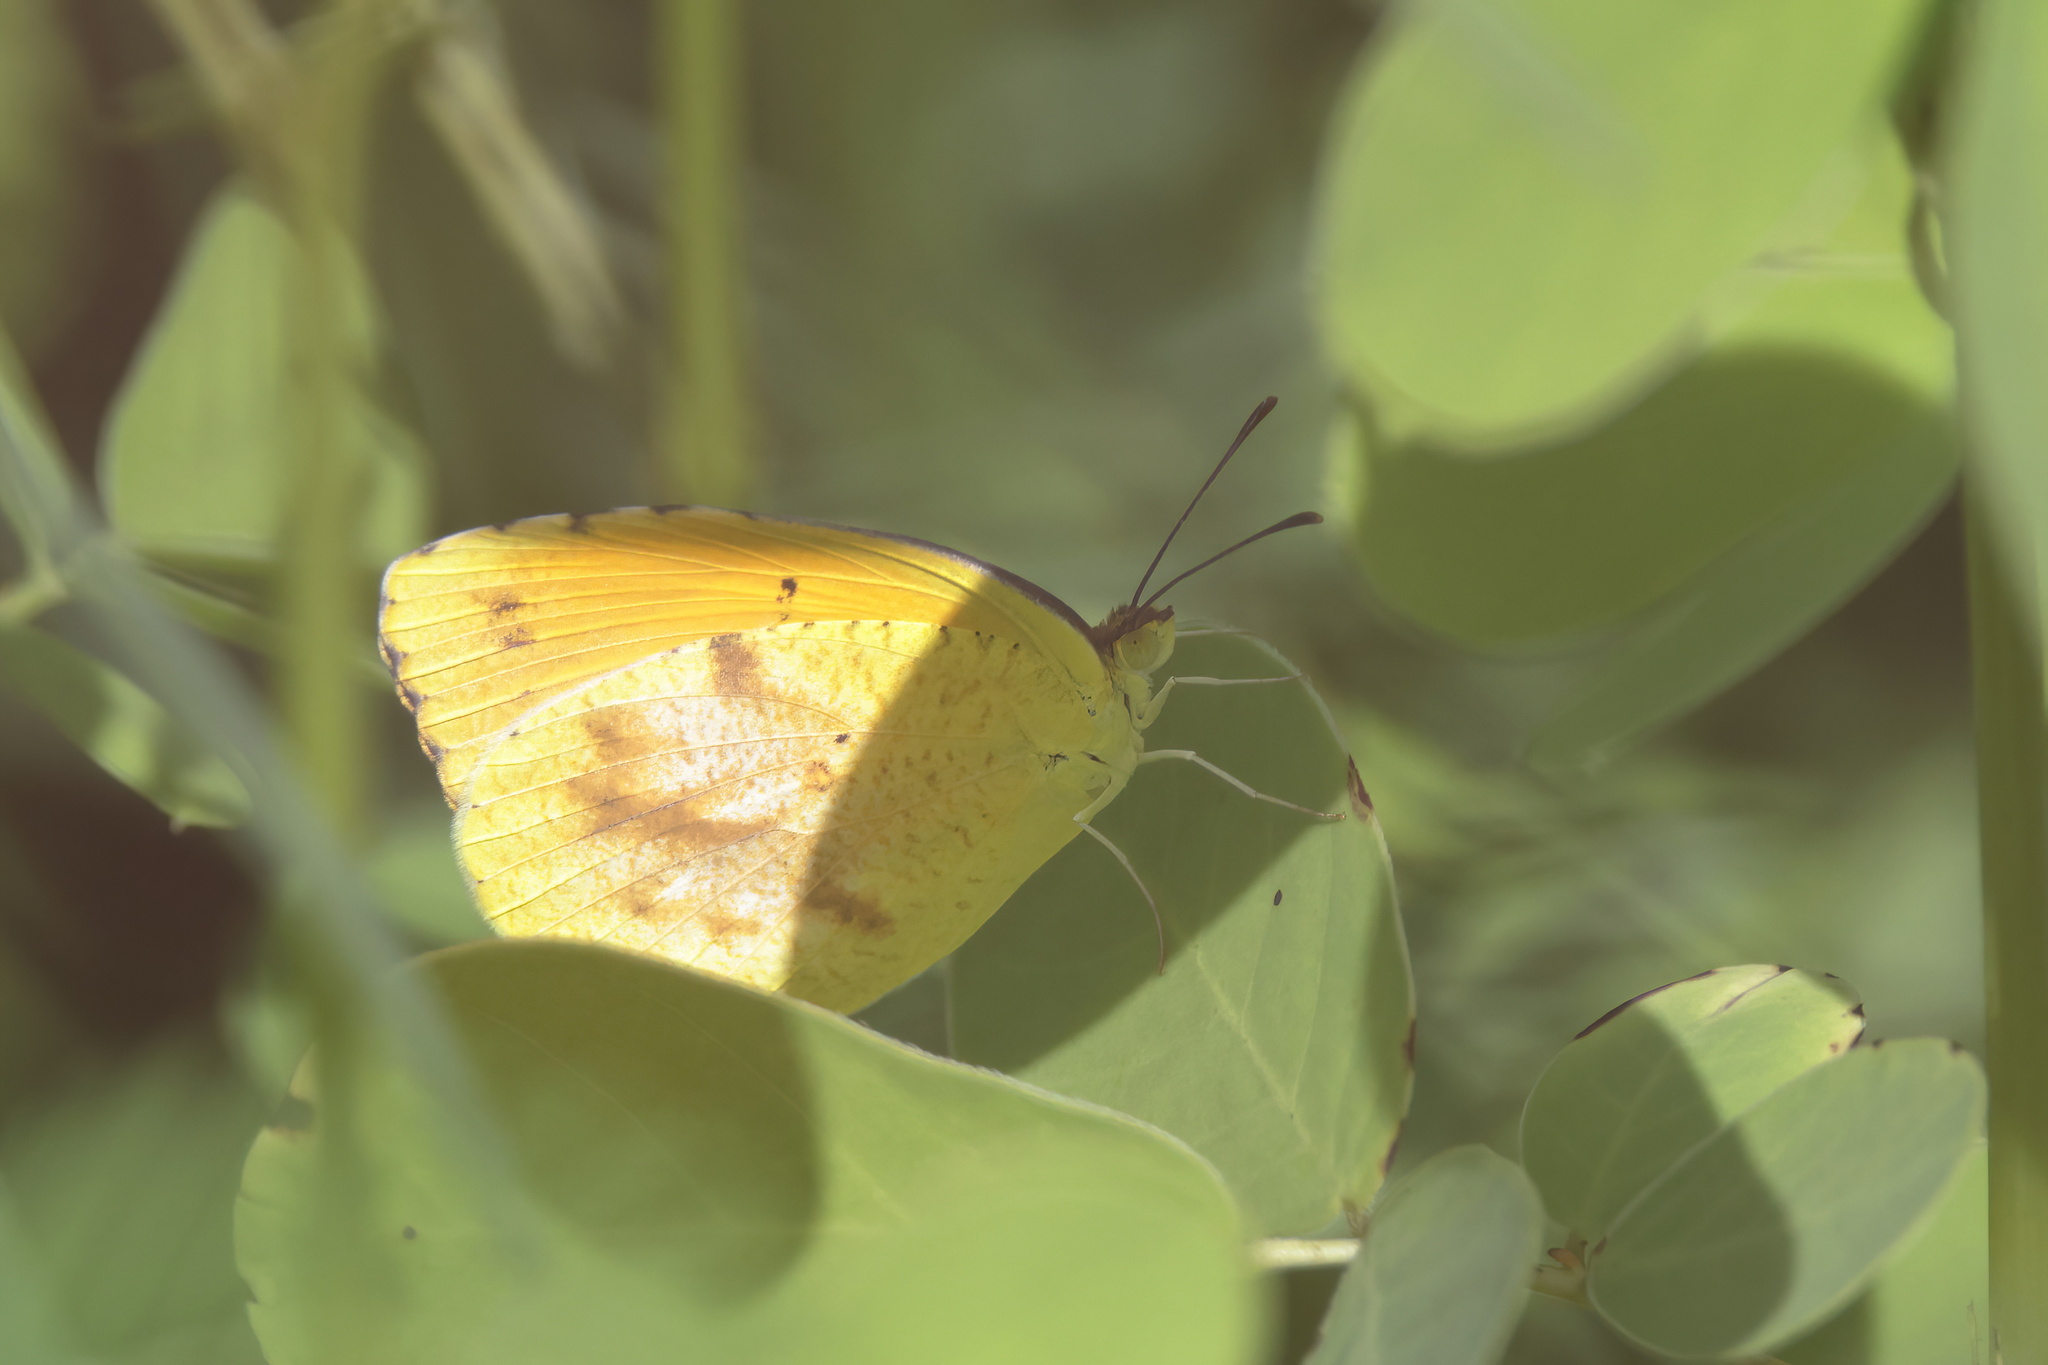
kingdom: Animalia
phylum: Arthropoda
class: Insecta
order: Lepidoptera
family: Pieridae
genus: Abaeis
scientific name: Abaeis nicippe
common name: Sleepy orange
